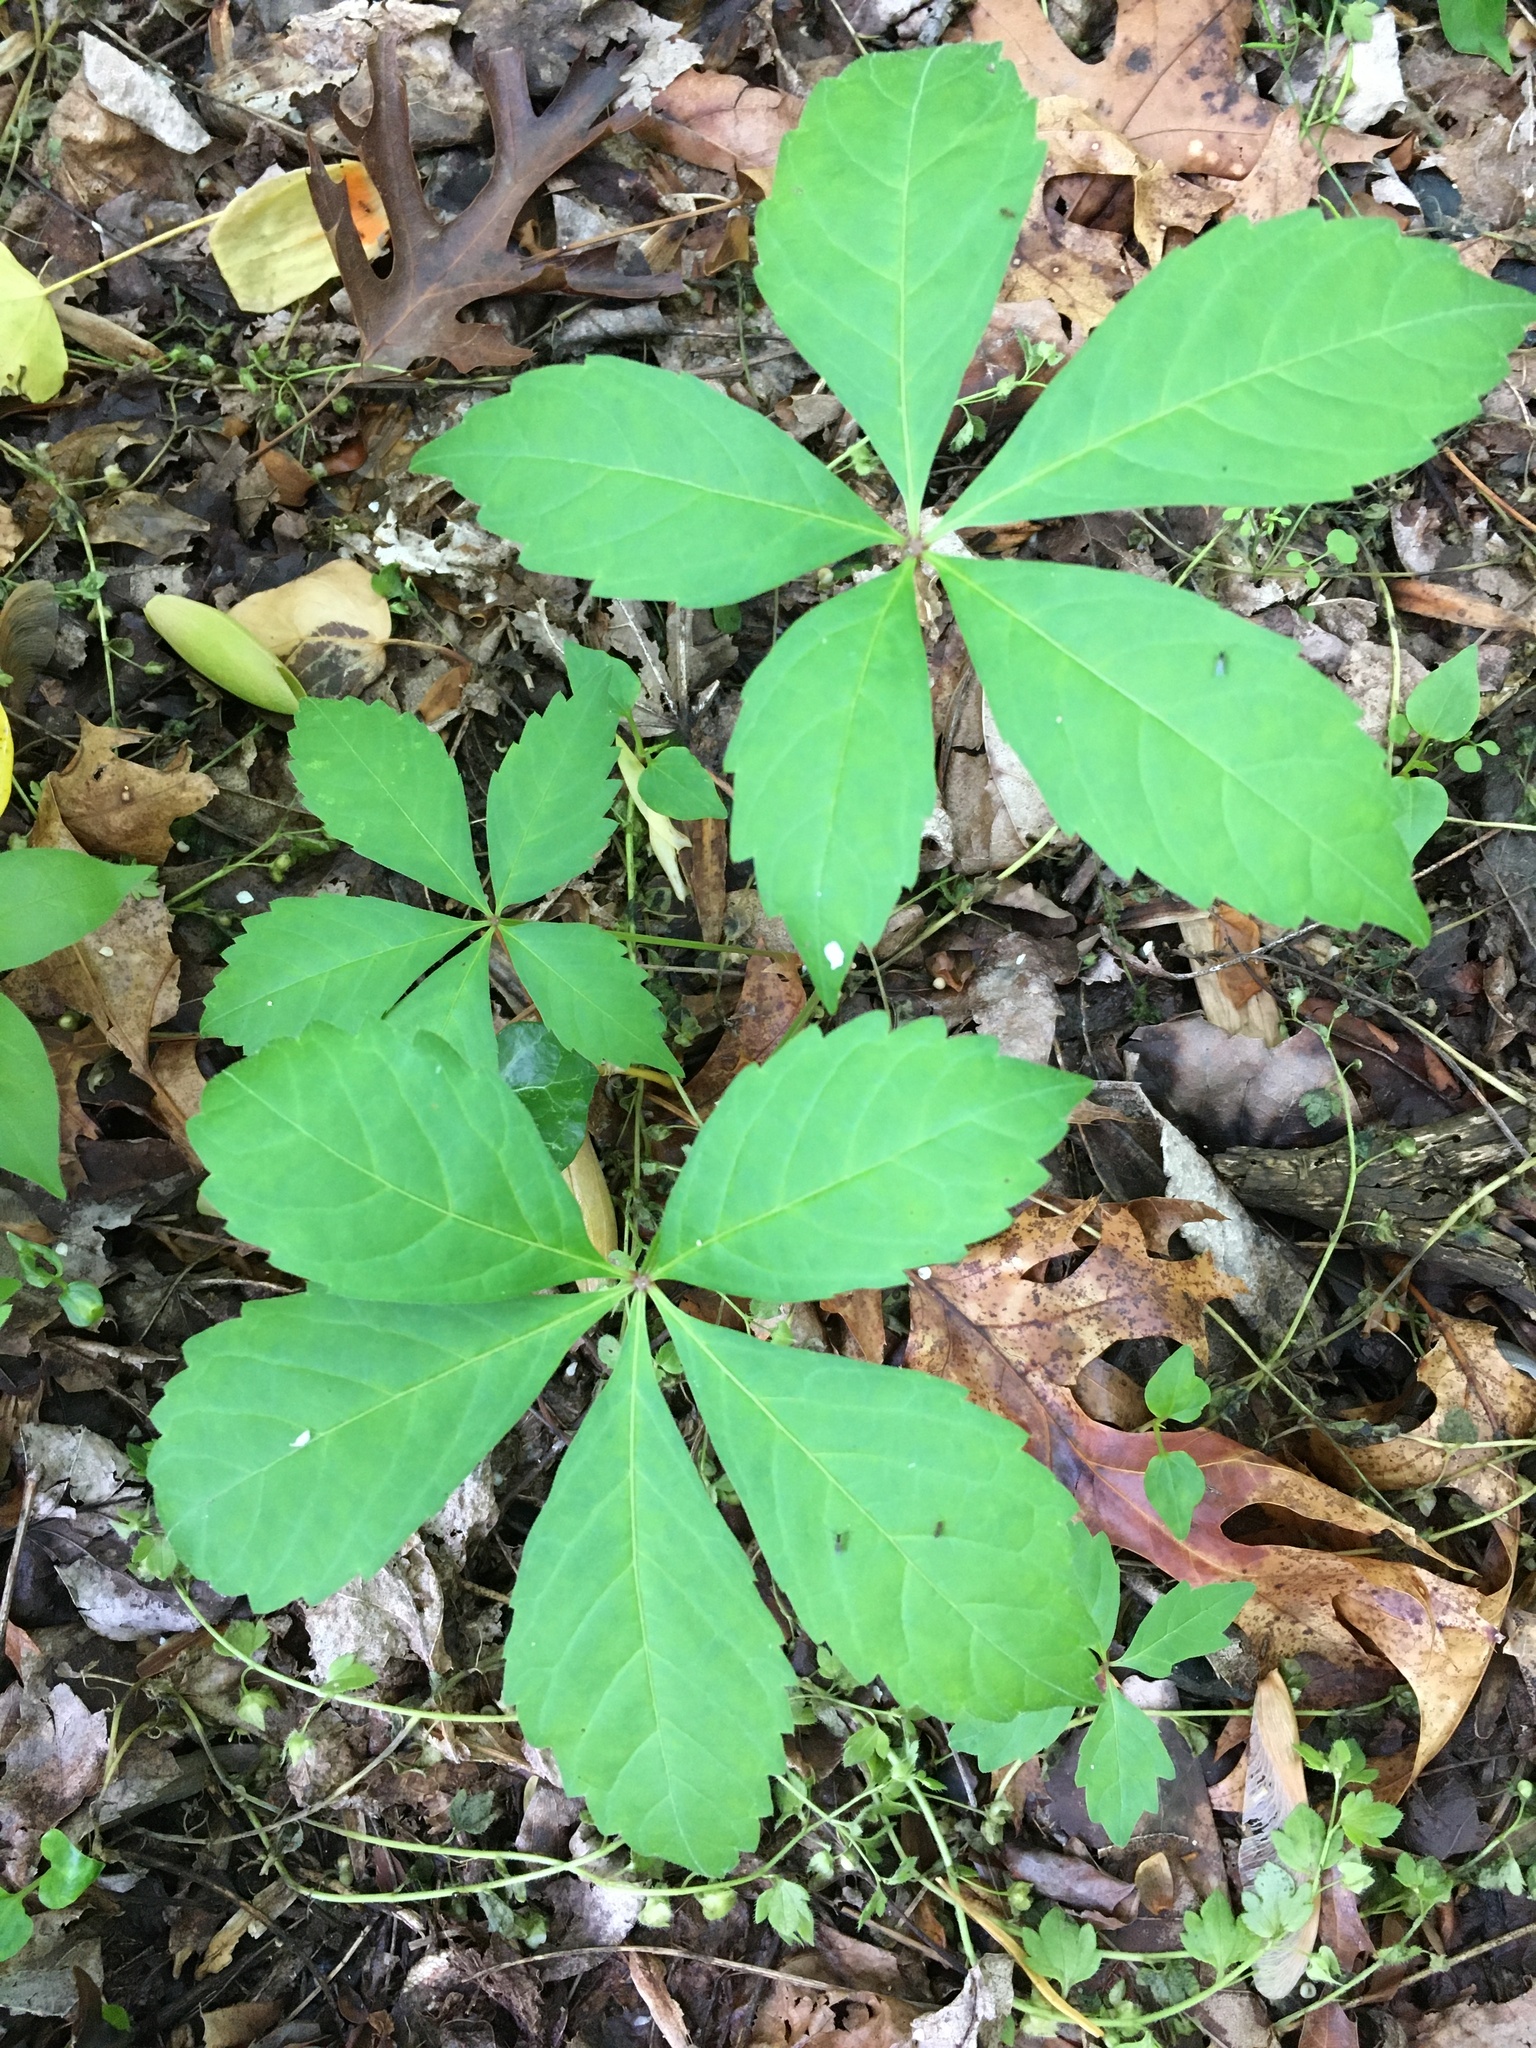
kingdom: Plantae
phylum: Tracheophyta
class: Magnoliopsida
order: Vitales
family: Vitaceae
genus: Parthenocissus
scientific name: Parthenocissus quinquefolia
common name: Virginia-creeper
